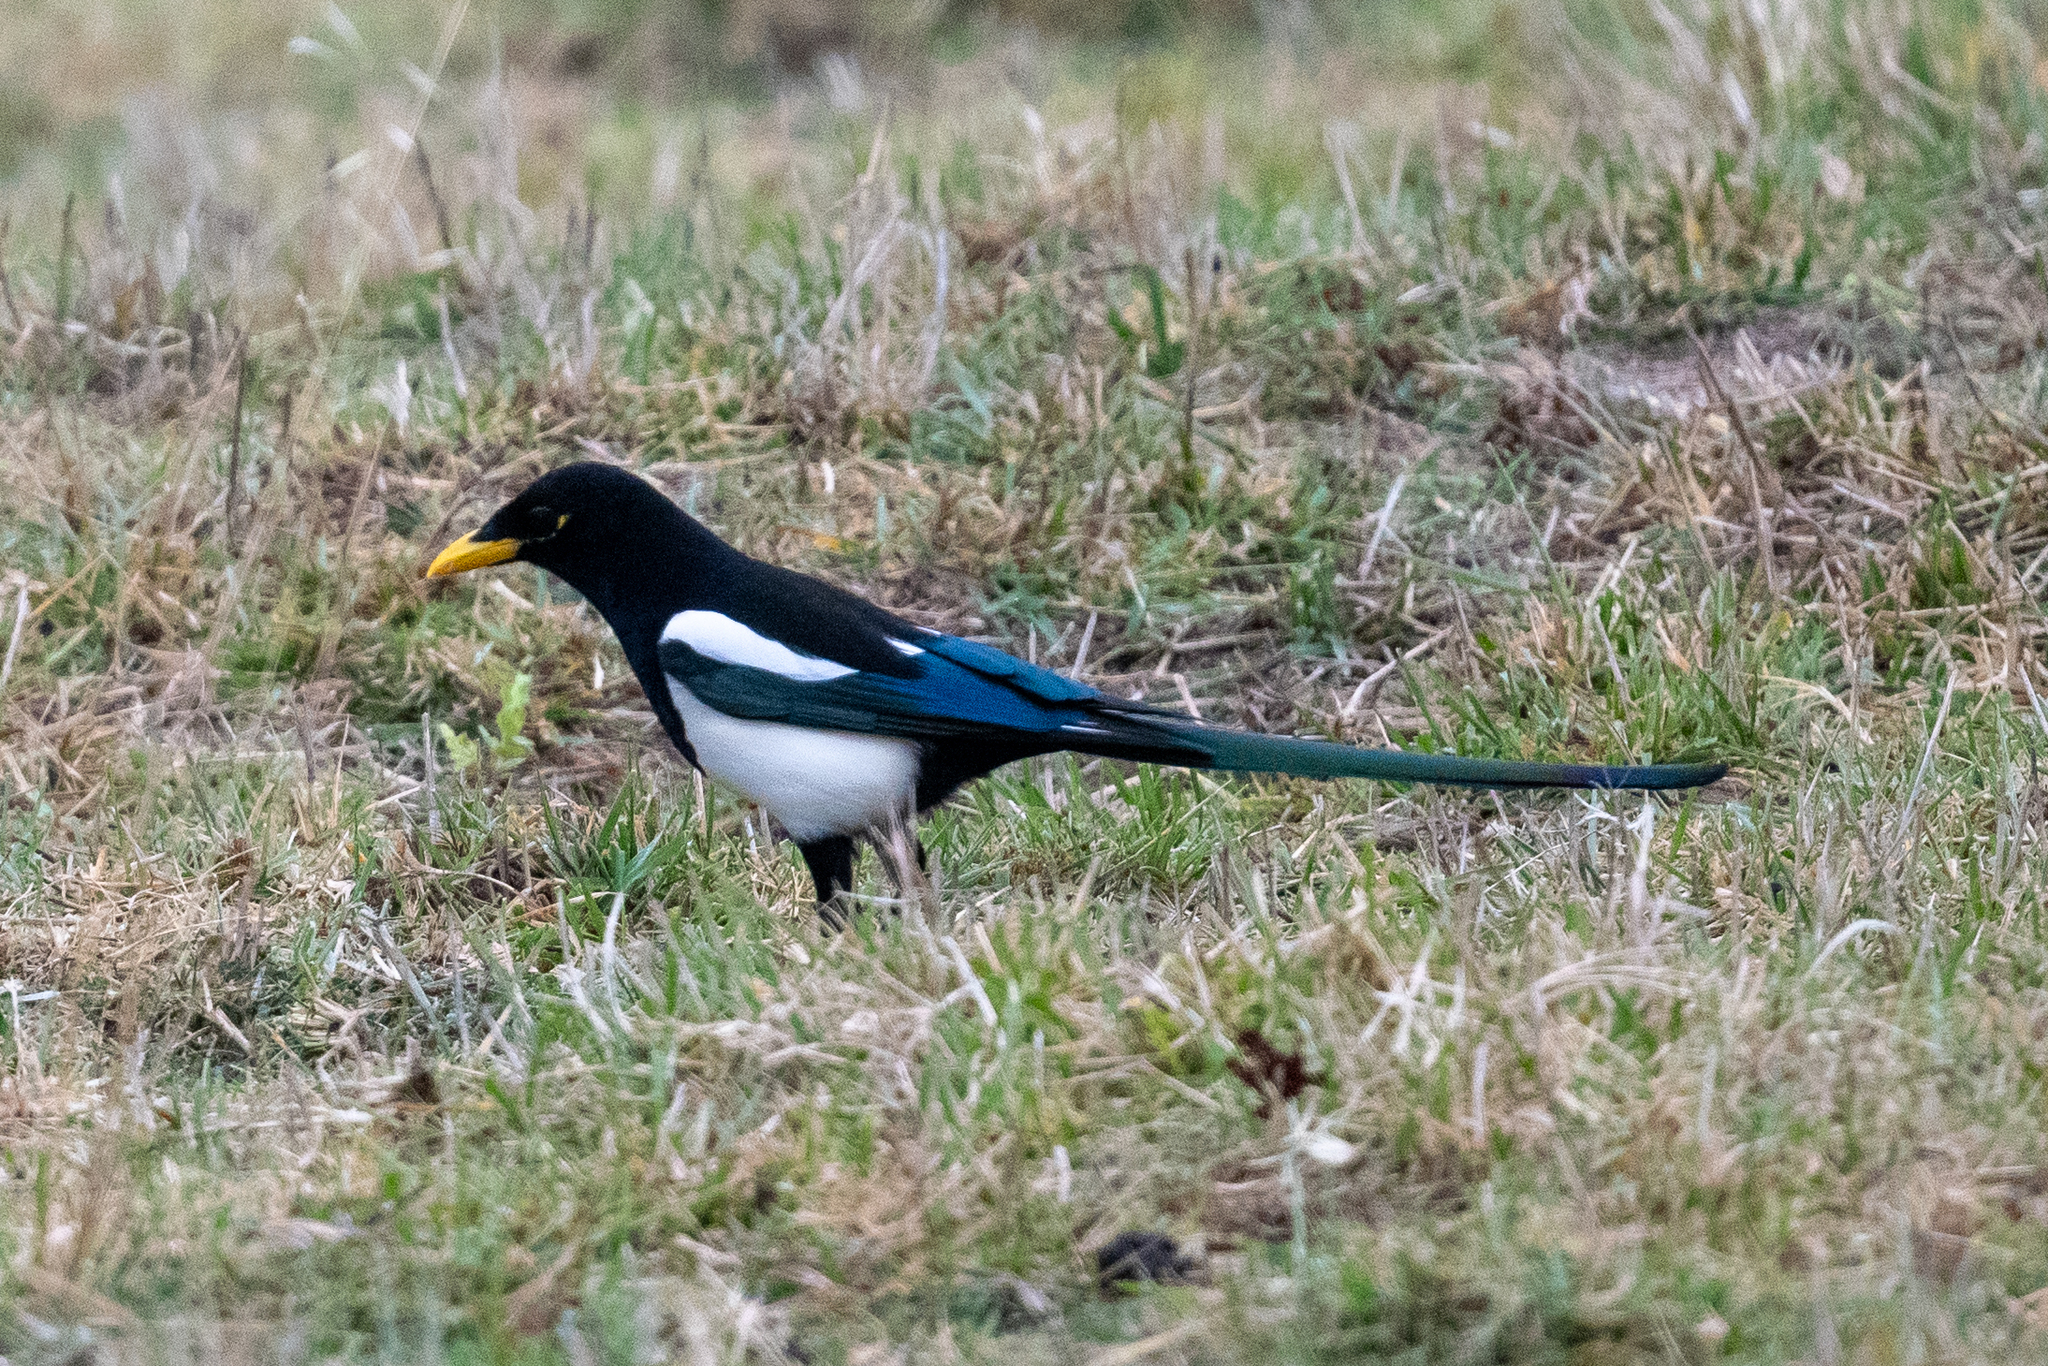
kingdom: Animalia
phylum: Chordata
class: Aves
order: Passeriformes
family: Corvidae
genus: Pica
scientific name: Pica nuttalli
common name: Yellow-billed magpie
